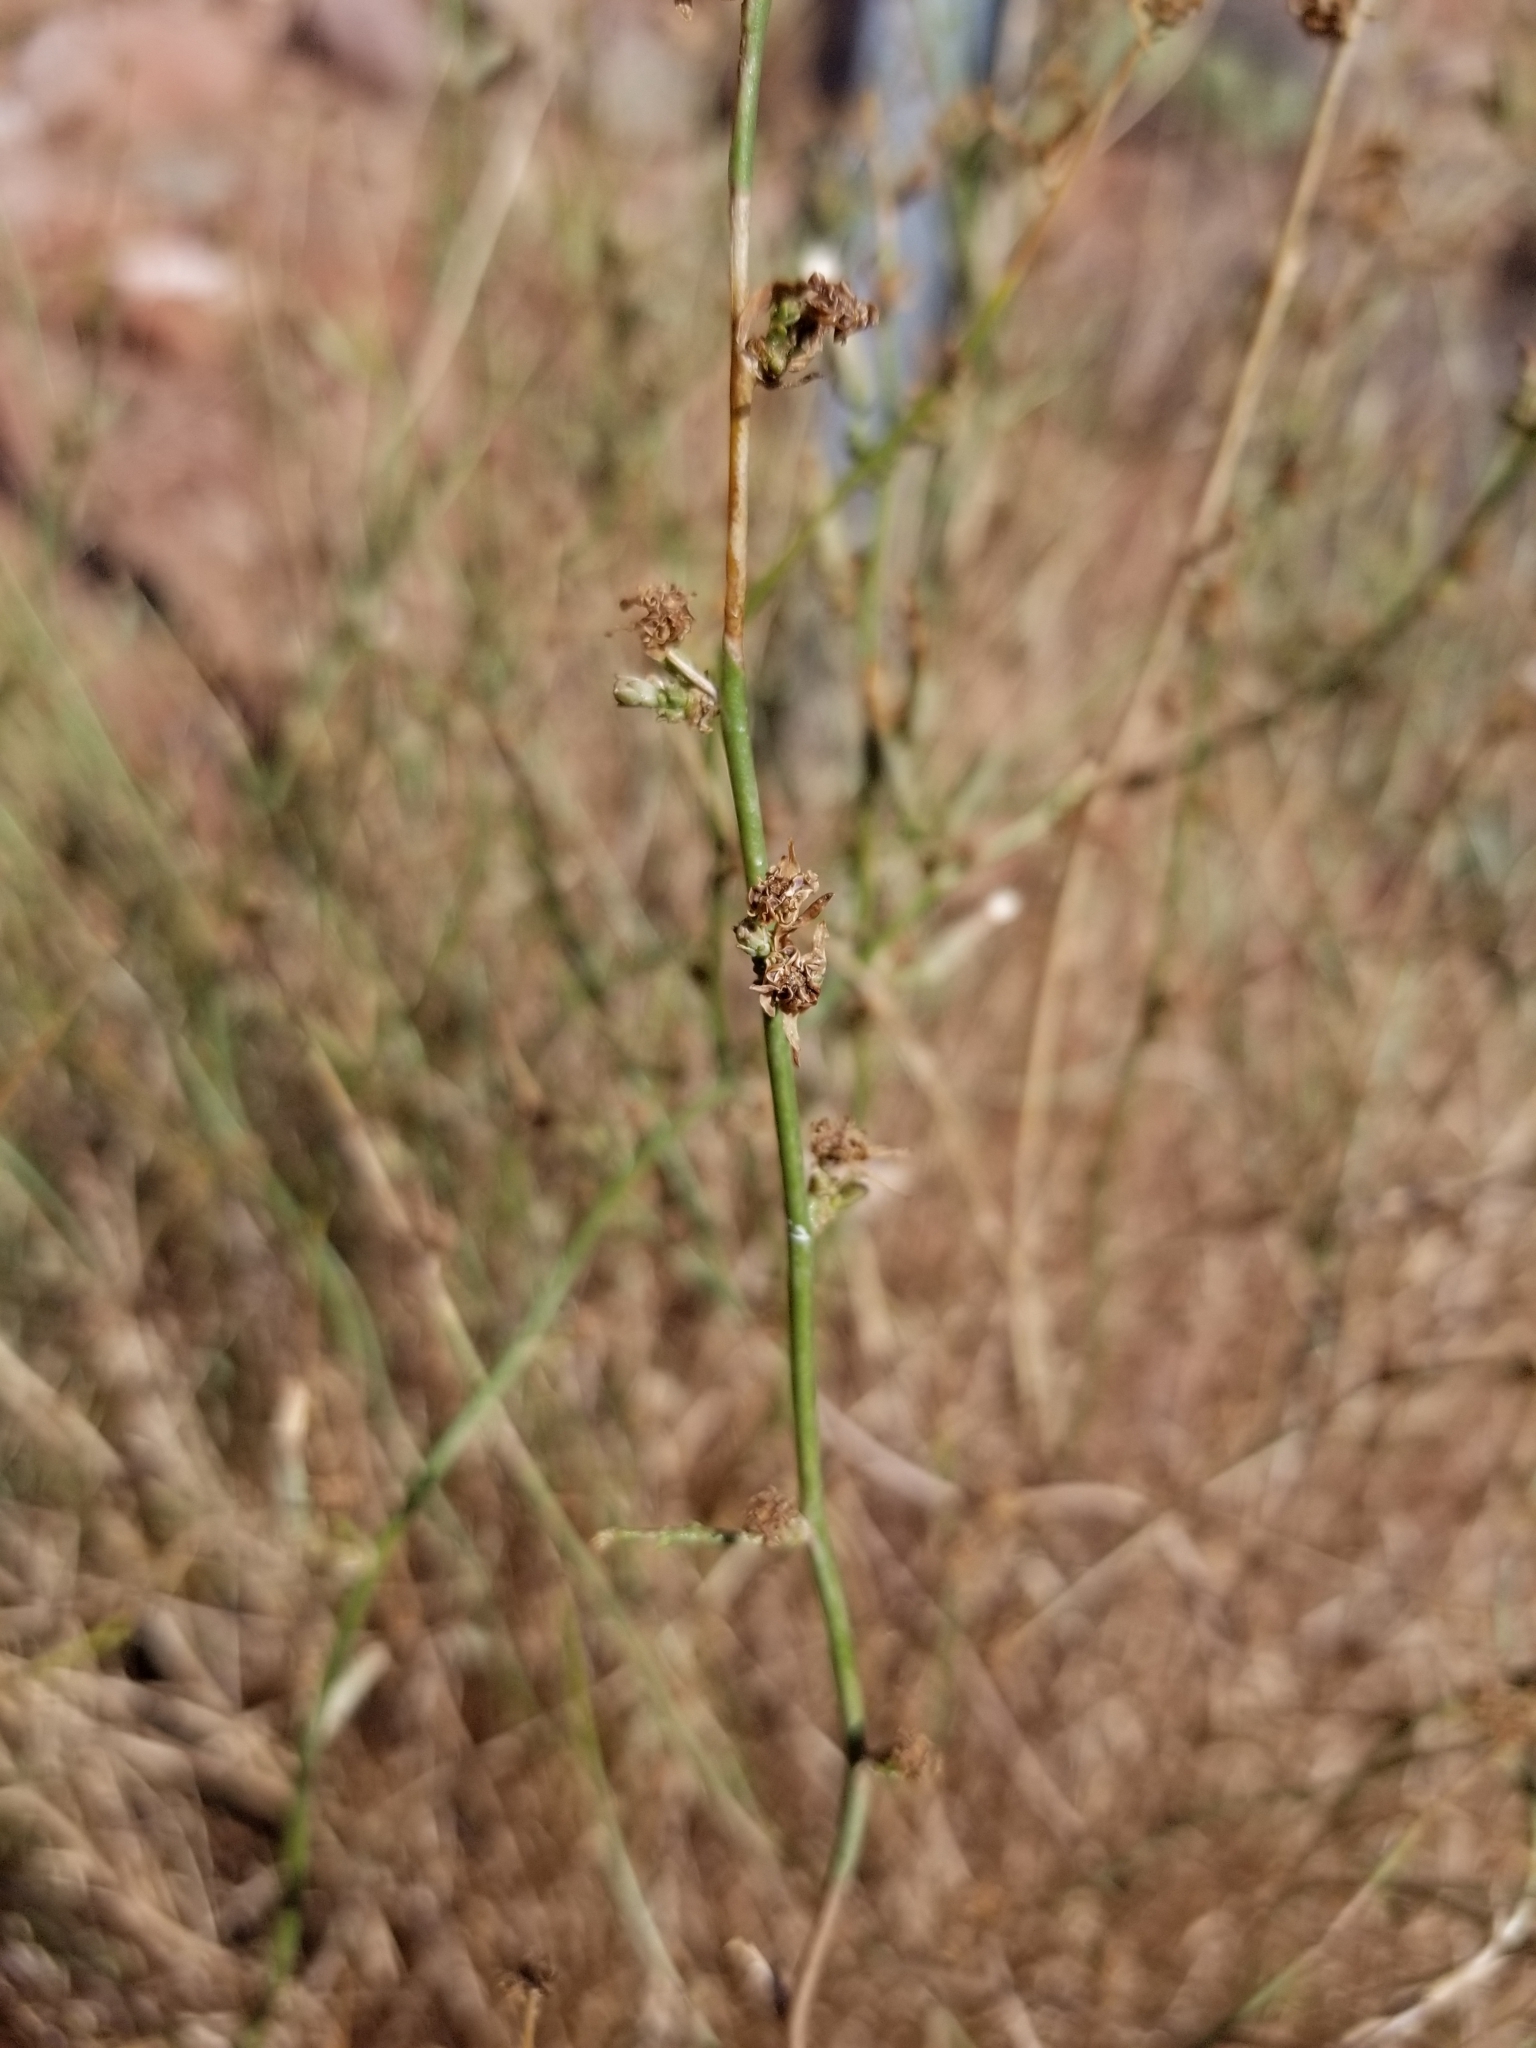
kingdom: Plantae
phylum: Tracheophyta
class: Magnoliopsida
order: Asterales
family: Asteraceae
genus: Stephanomeria
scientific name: Stephanomeria exigua
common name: Small wirelettuce
